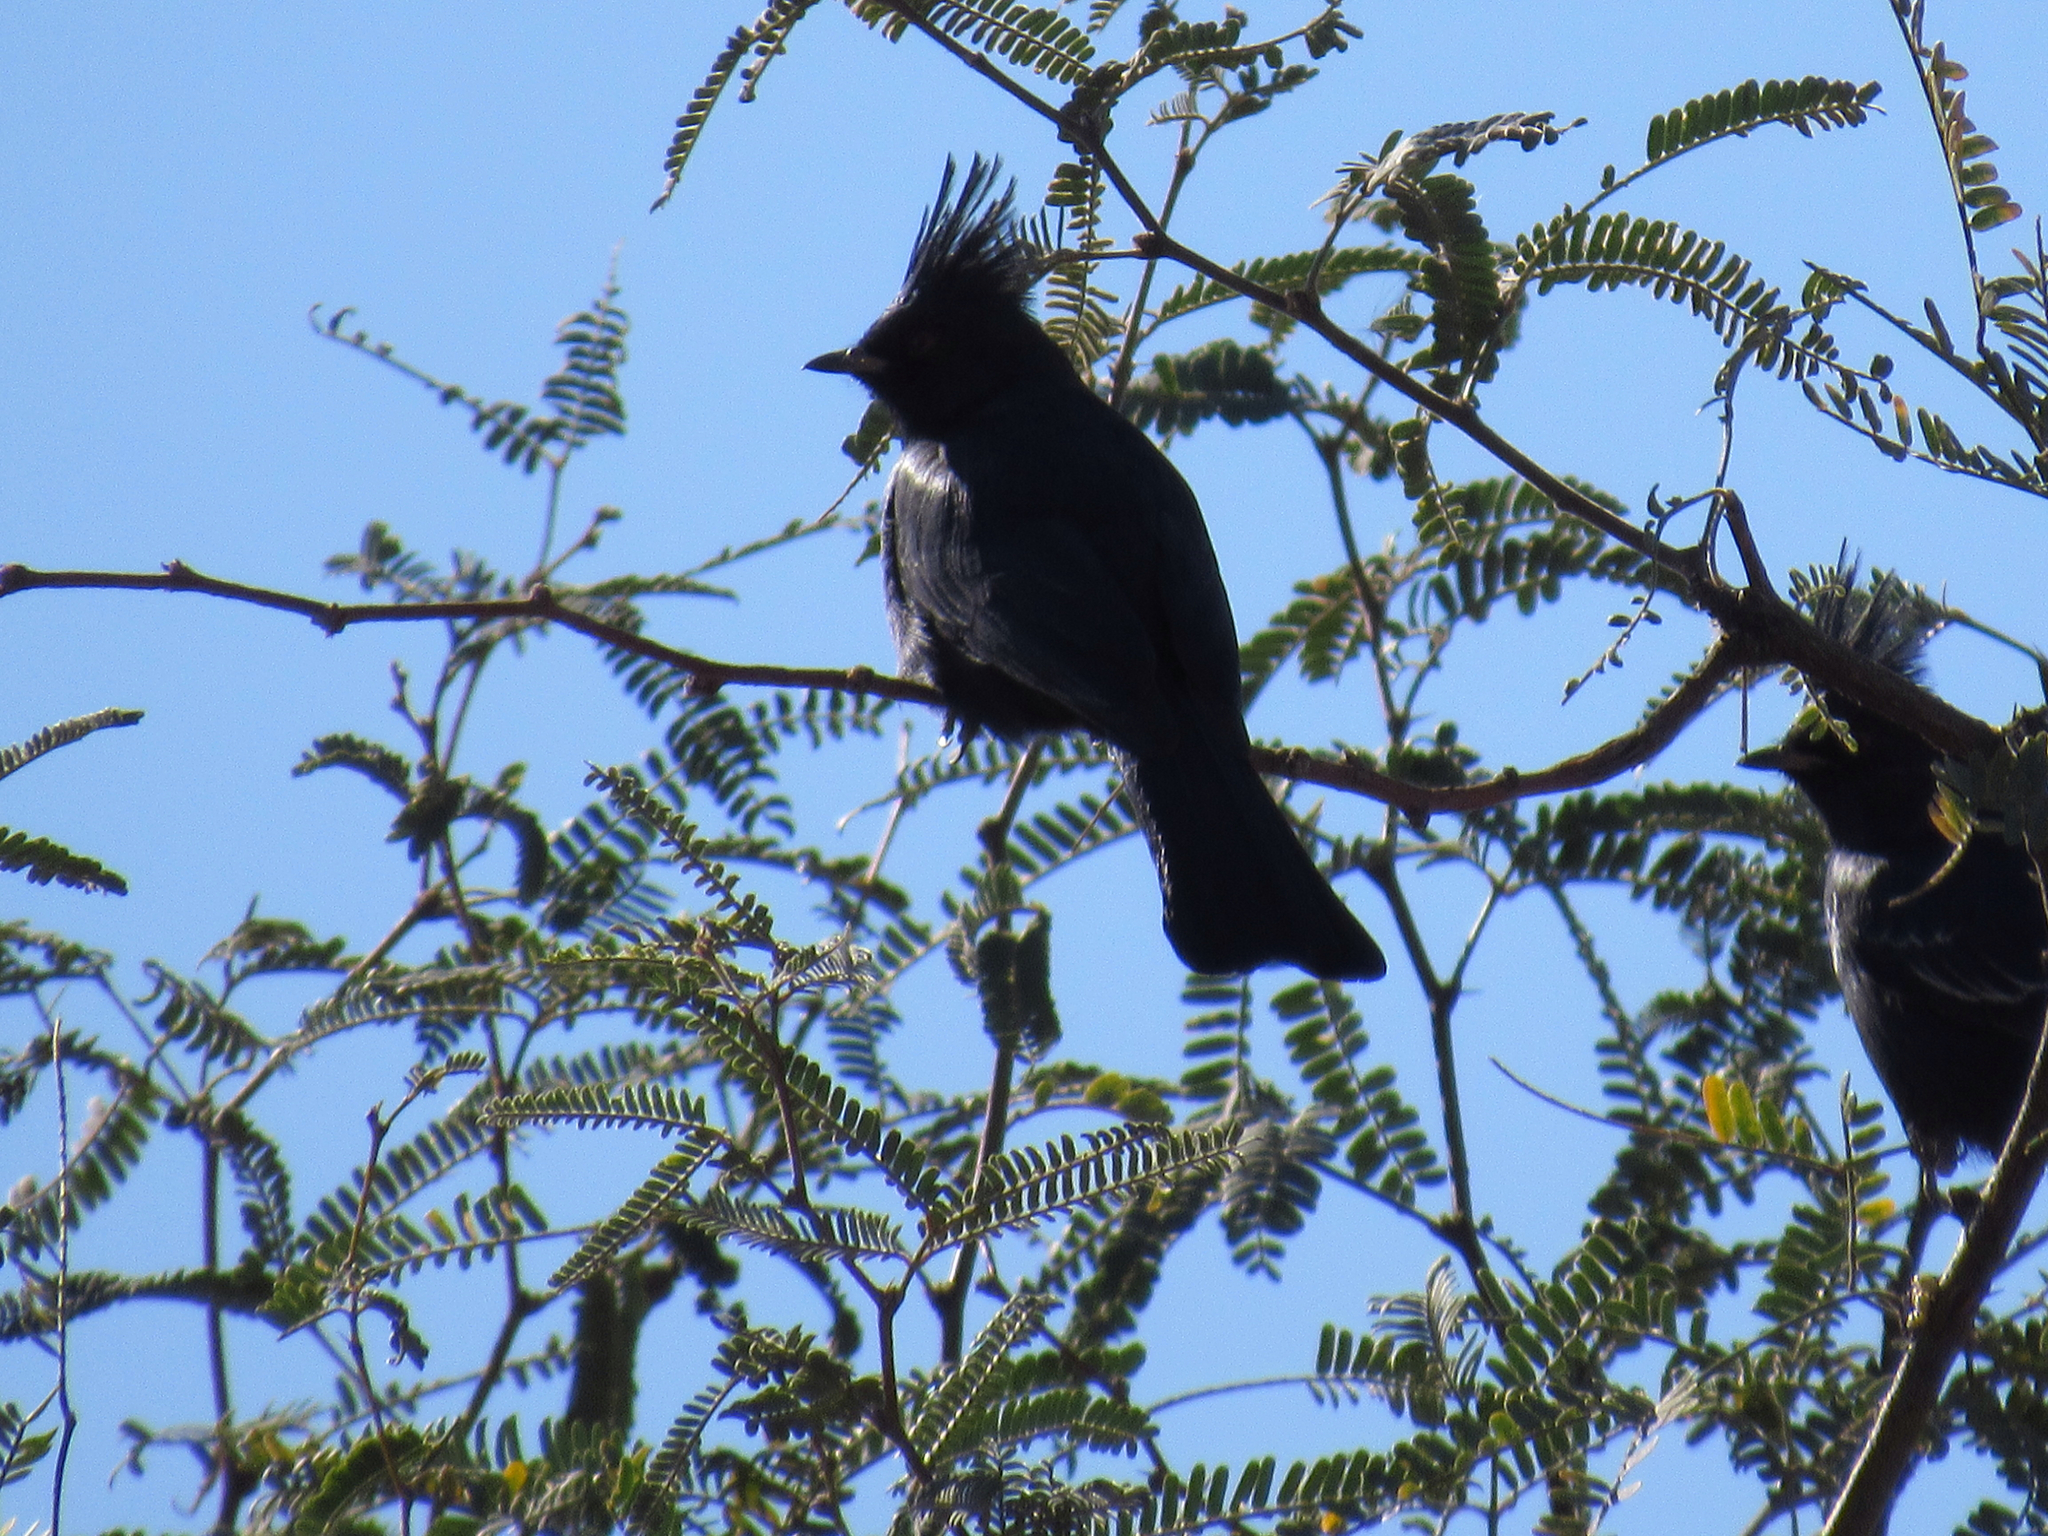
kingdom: Animalia
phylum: Chordata
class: Aves
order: Passeriformes
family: Ptilogonatidae
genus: Phainopepla
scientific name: Phainopepla nitens
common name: Phainopepla
